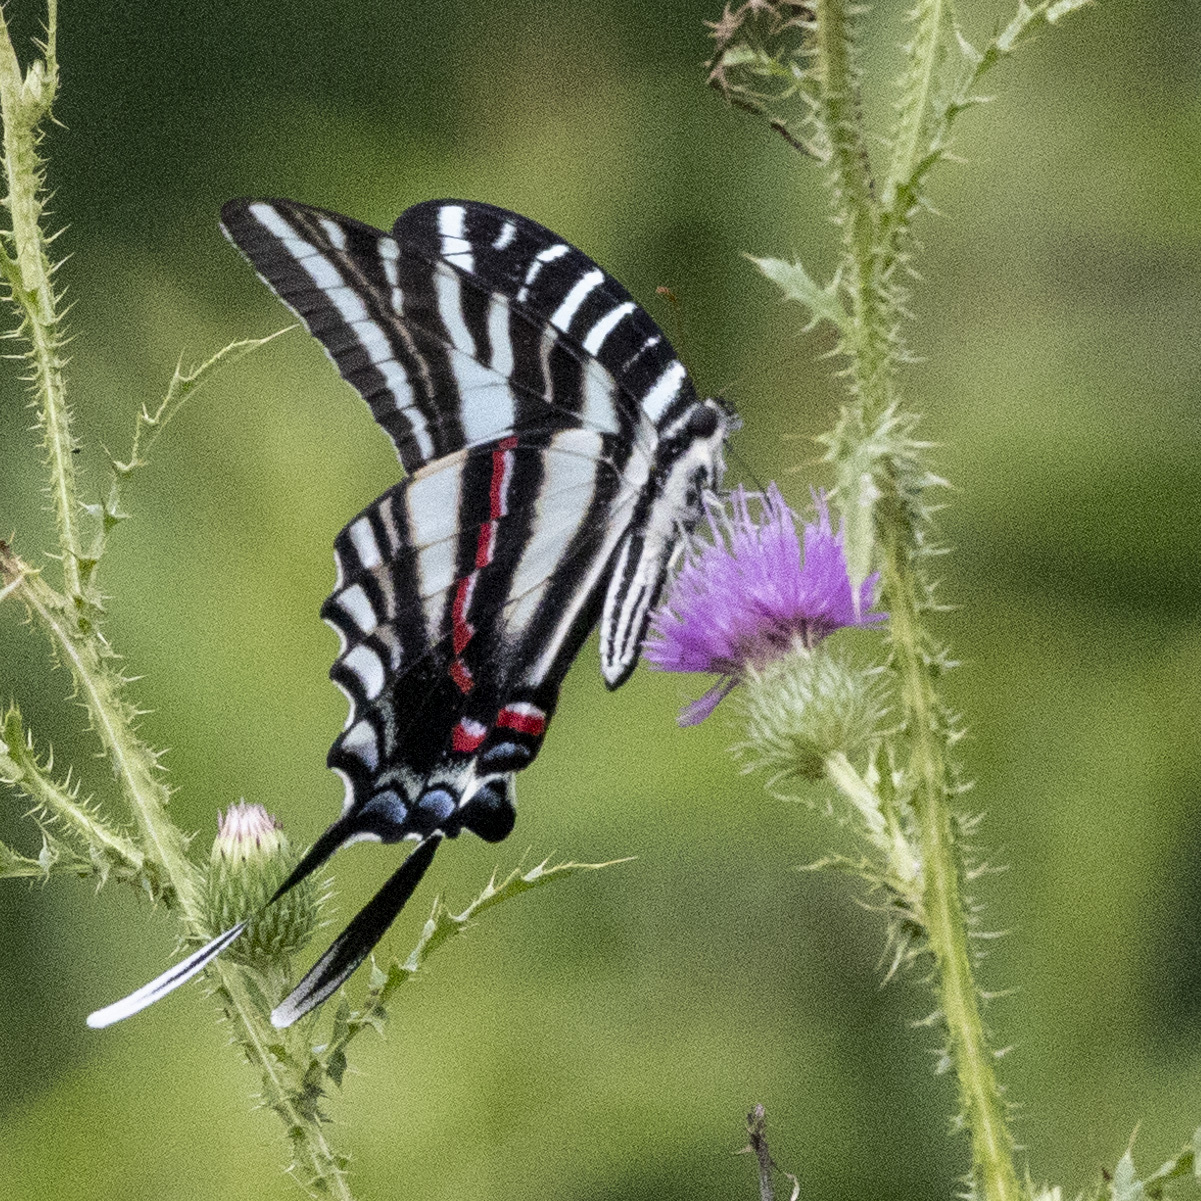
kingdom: Animalia
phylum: Arthropoda
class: Insecta
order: Lepidoptera
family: Papilionidae
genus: Protographium
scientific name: Protographium marcellus
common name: Zebra swallowtail
